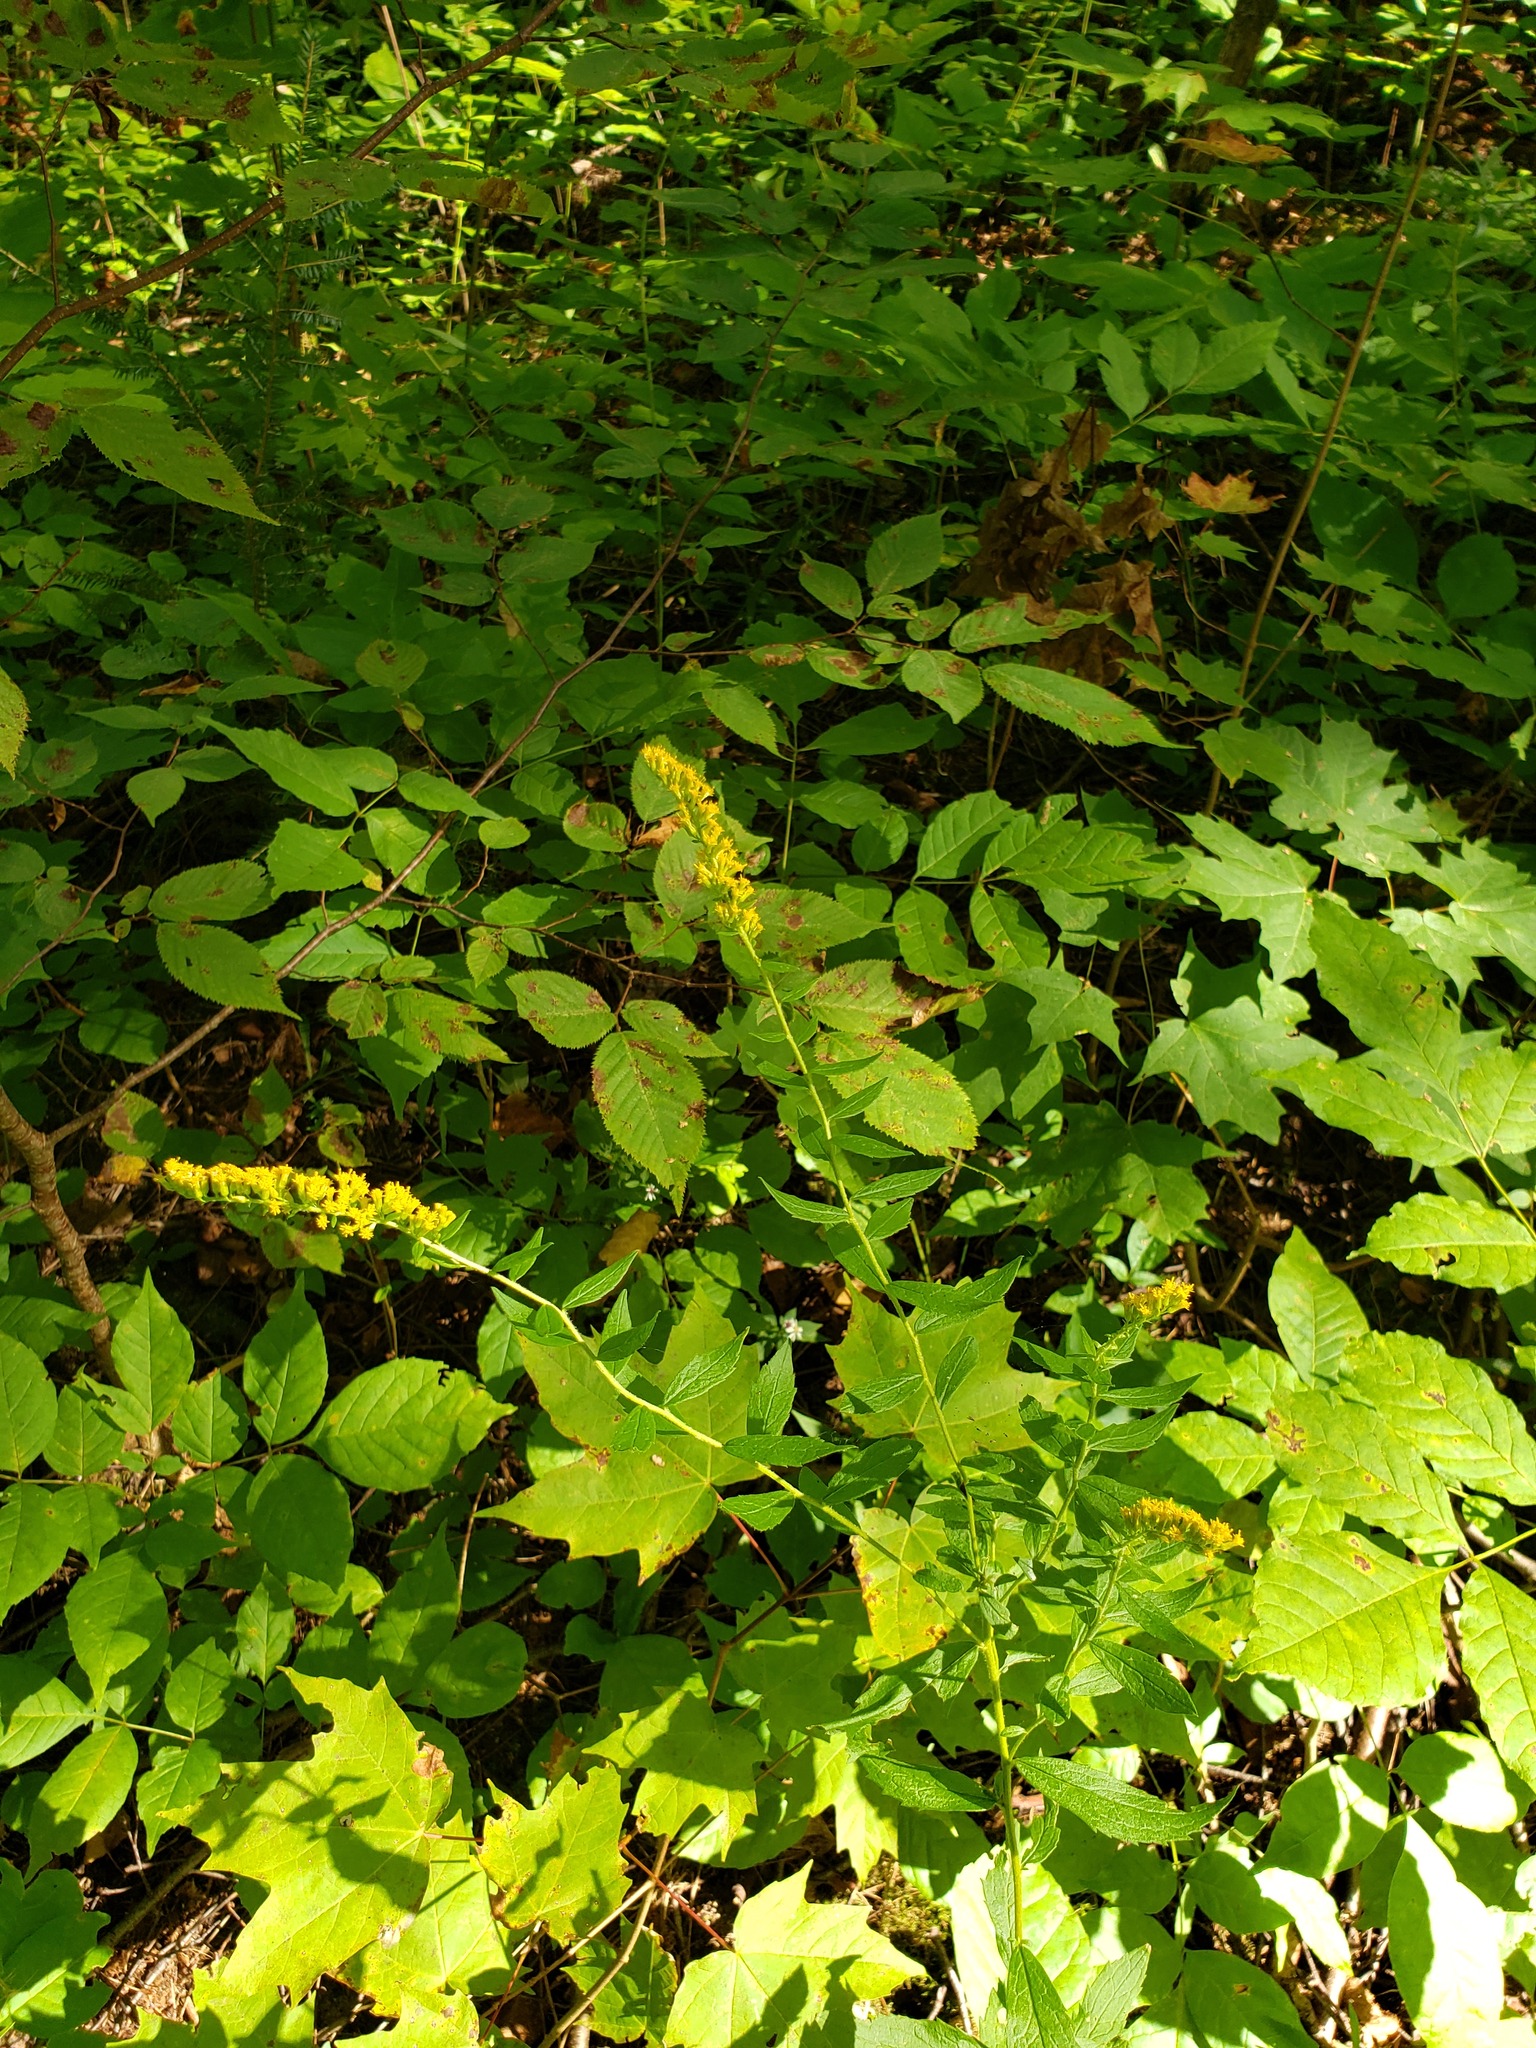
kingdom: Plantae
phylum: Tracheophyta
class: Magnoliopsida
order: Asterales
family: Asteraceae
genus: Solidago
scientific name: Solidago rugosa
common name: Rough-stemmed goldenrod
